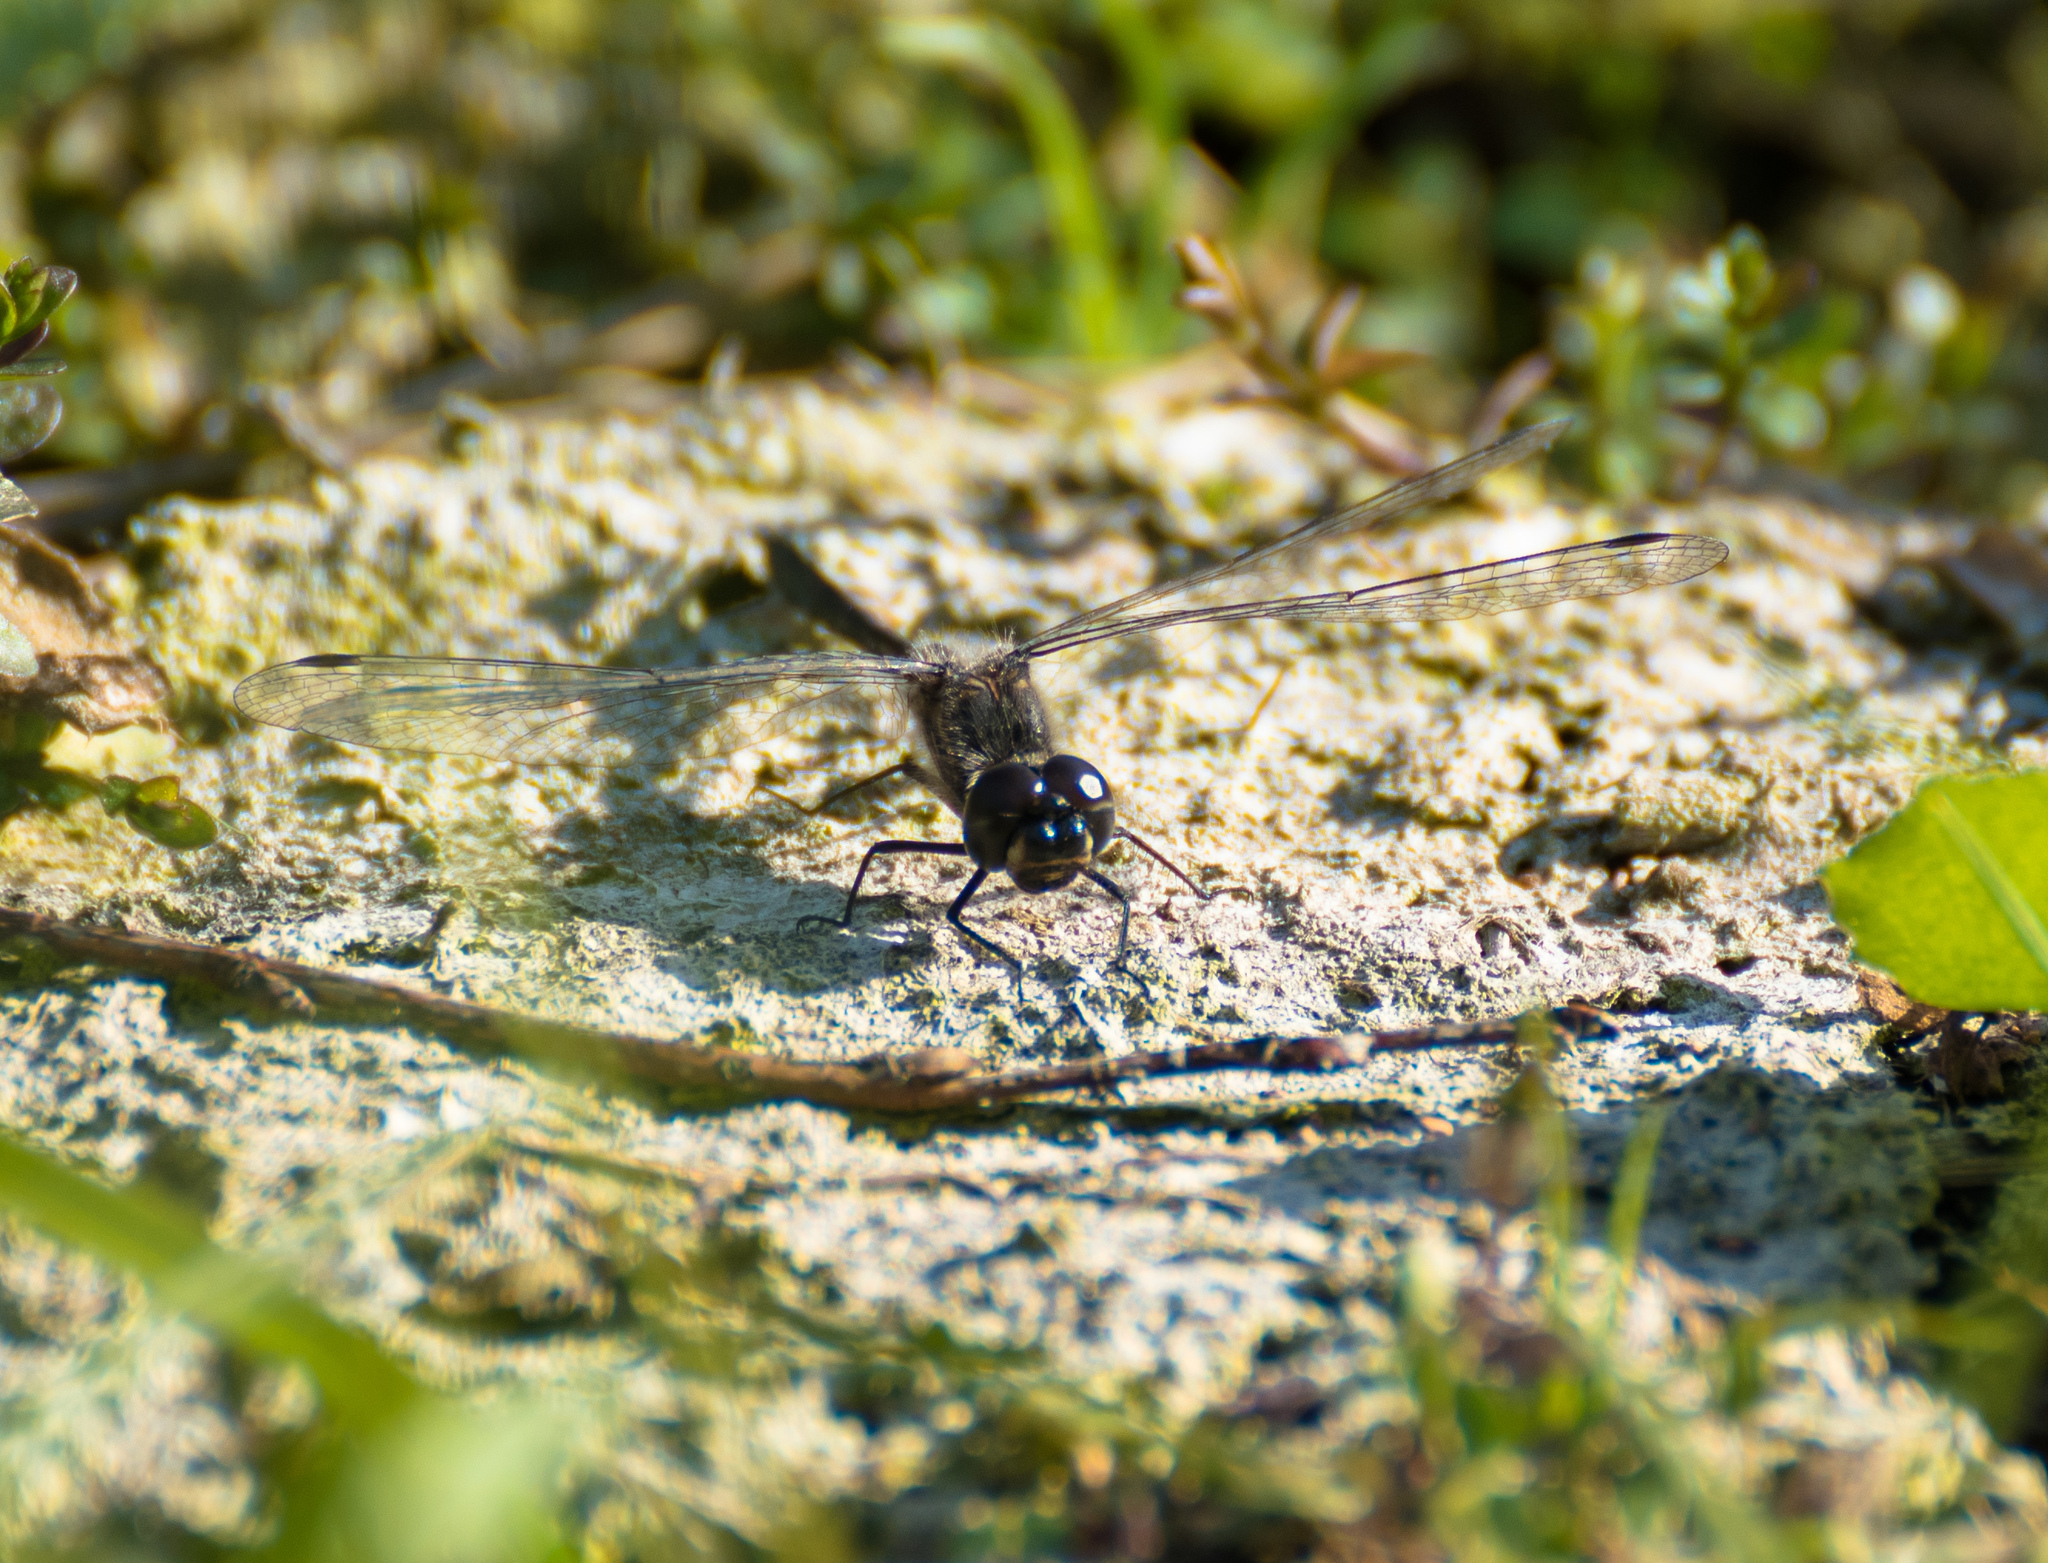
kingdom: Animalia
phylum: Arthropoda
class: Insecta
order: Odonata
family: Libellulidae
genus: Sympetrum
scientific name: Sympetrum danae
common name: Black darter
